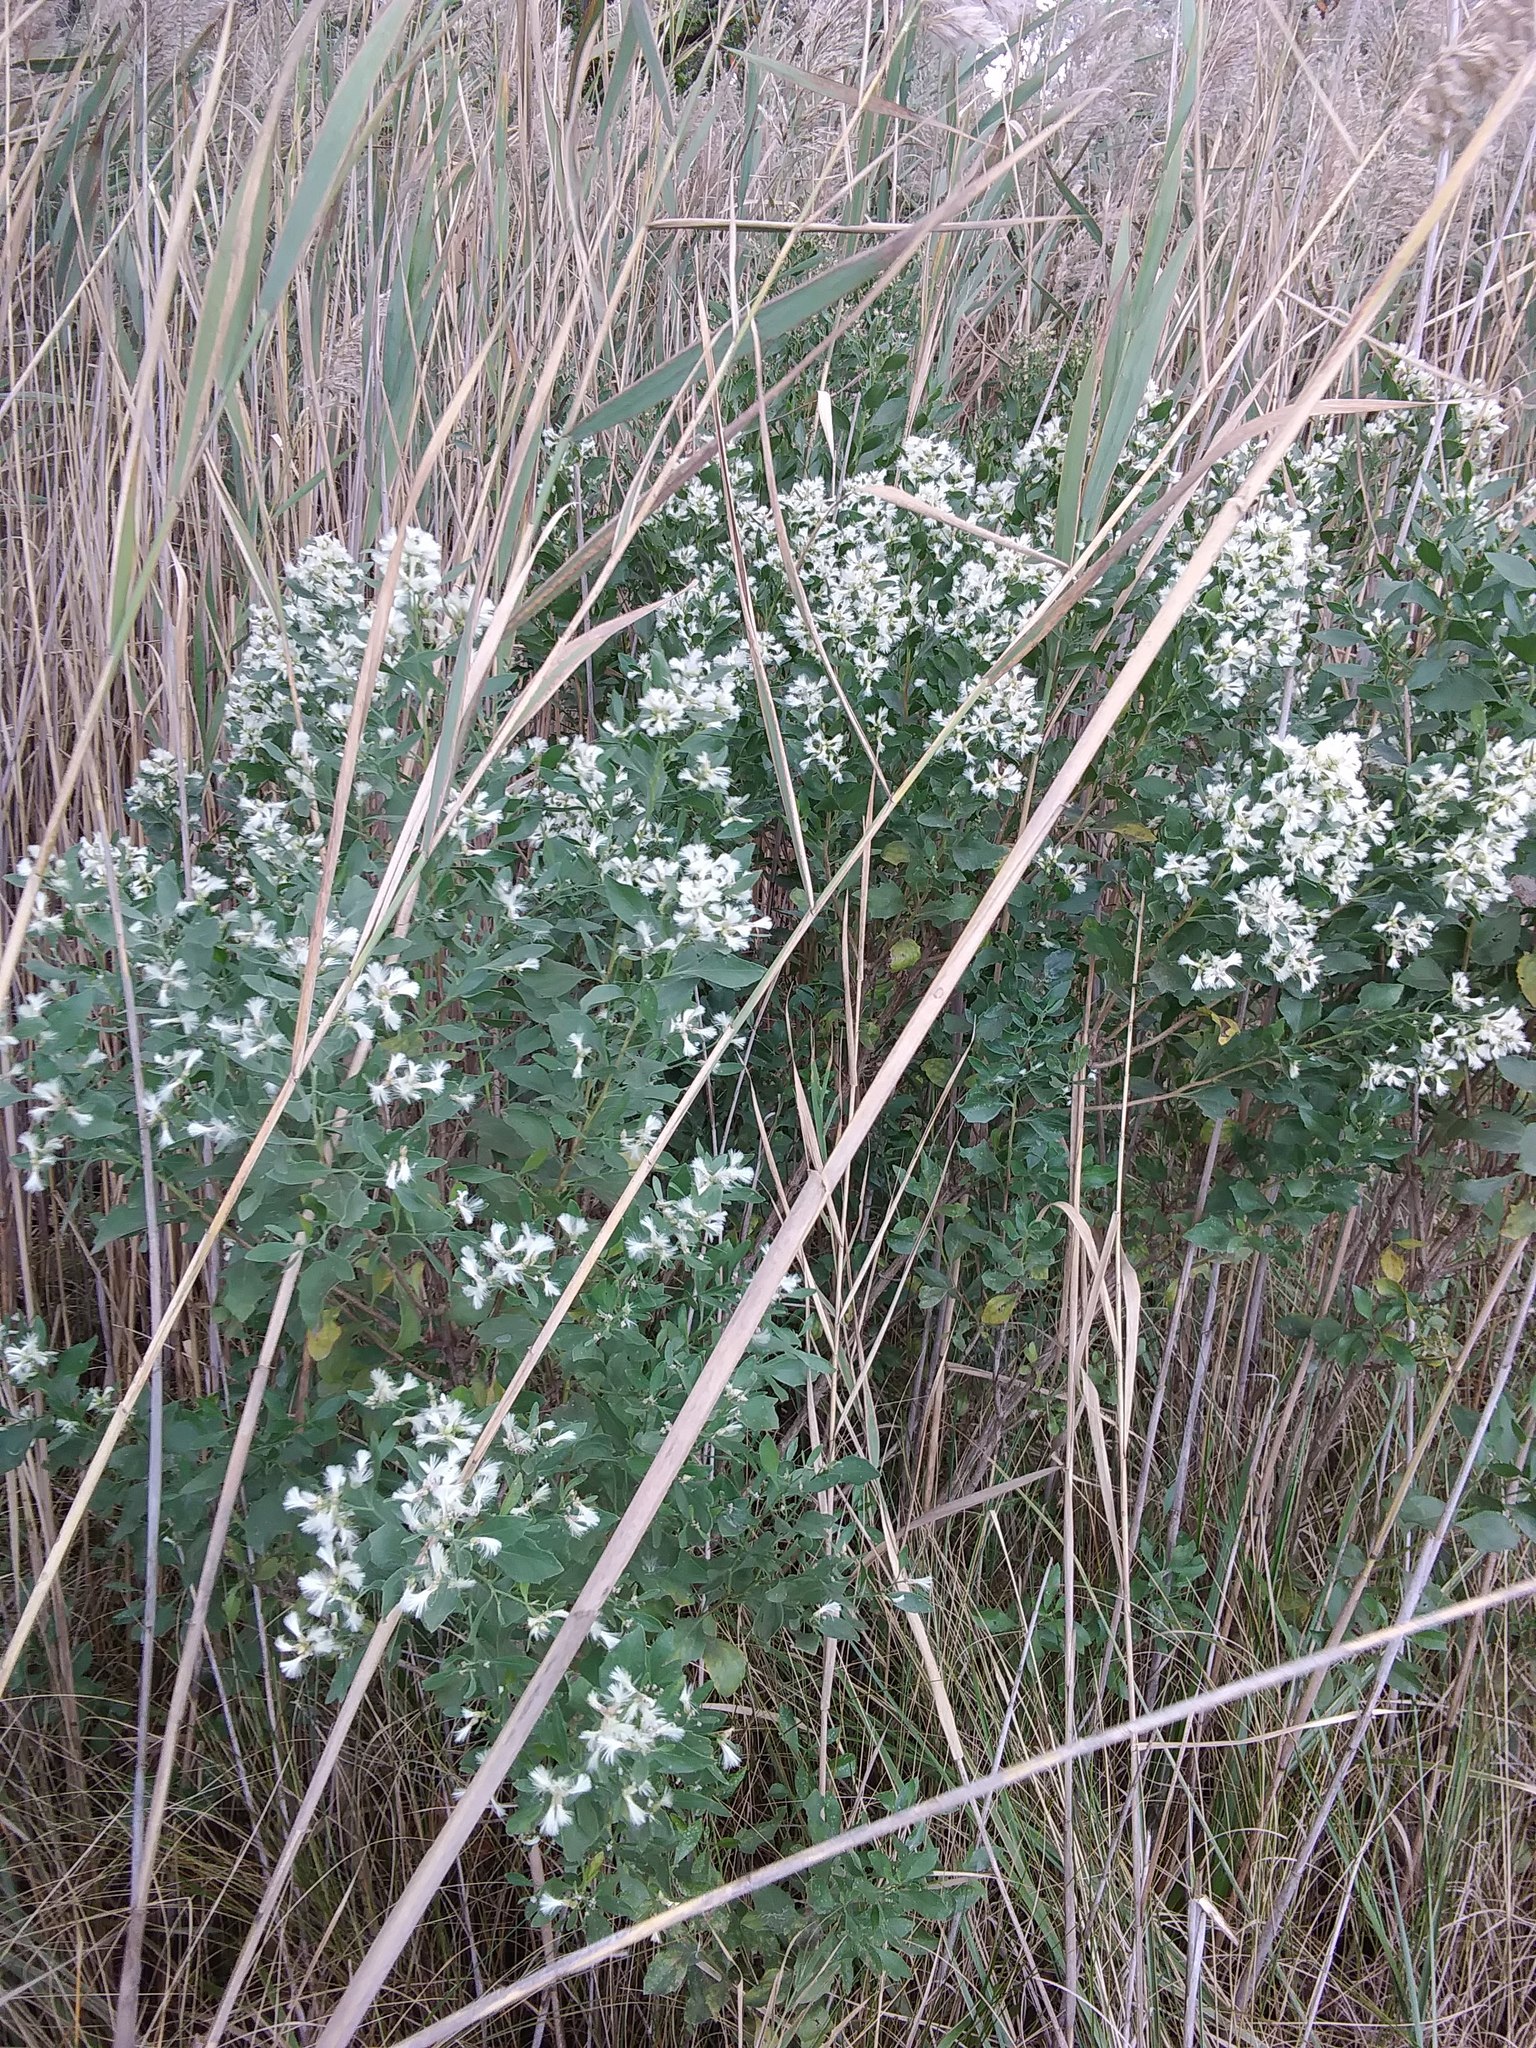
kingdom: Plantae
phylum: Tracheophyta
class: Magnoliopsida
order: Asterales
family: Asteraceae
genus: Baccharis
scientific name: Baccharis halimifolia
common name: Eastern baccharis
